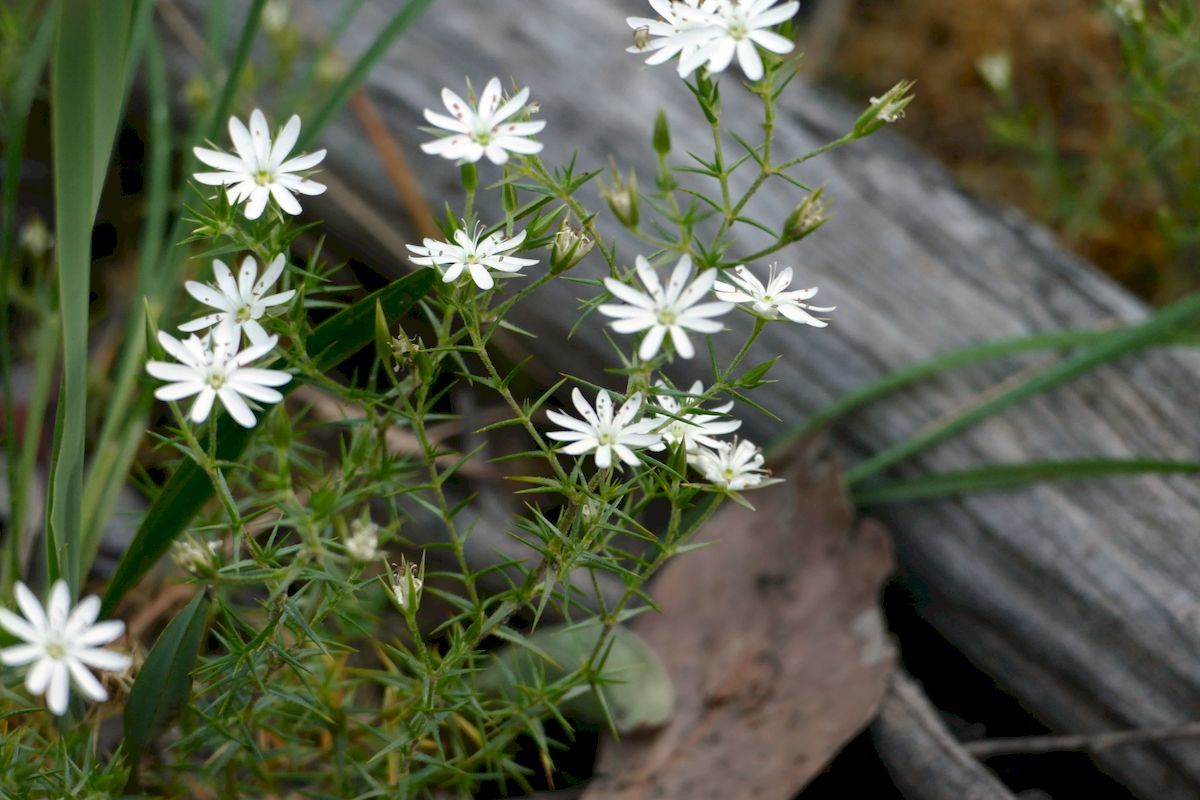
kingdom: Plantae
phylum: Tracheophyta
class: Magnoliopsida
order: Caryophyllales
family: Caryophyllaceae
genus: Stellaria
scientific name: Stellaria pungens
